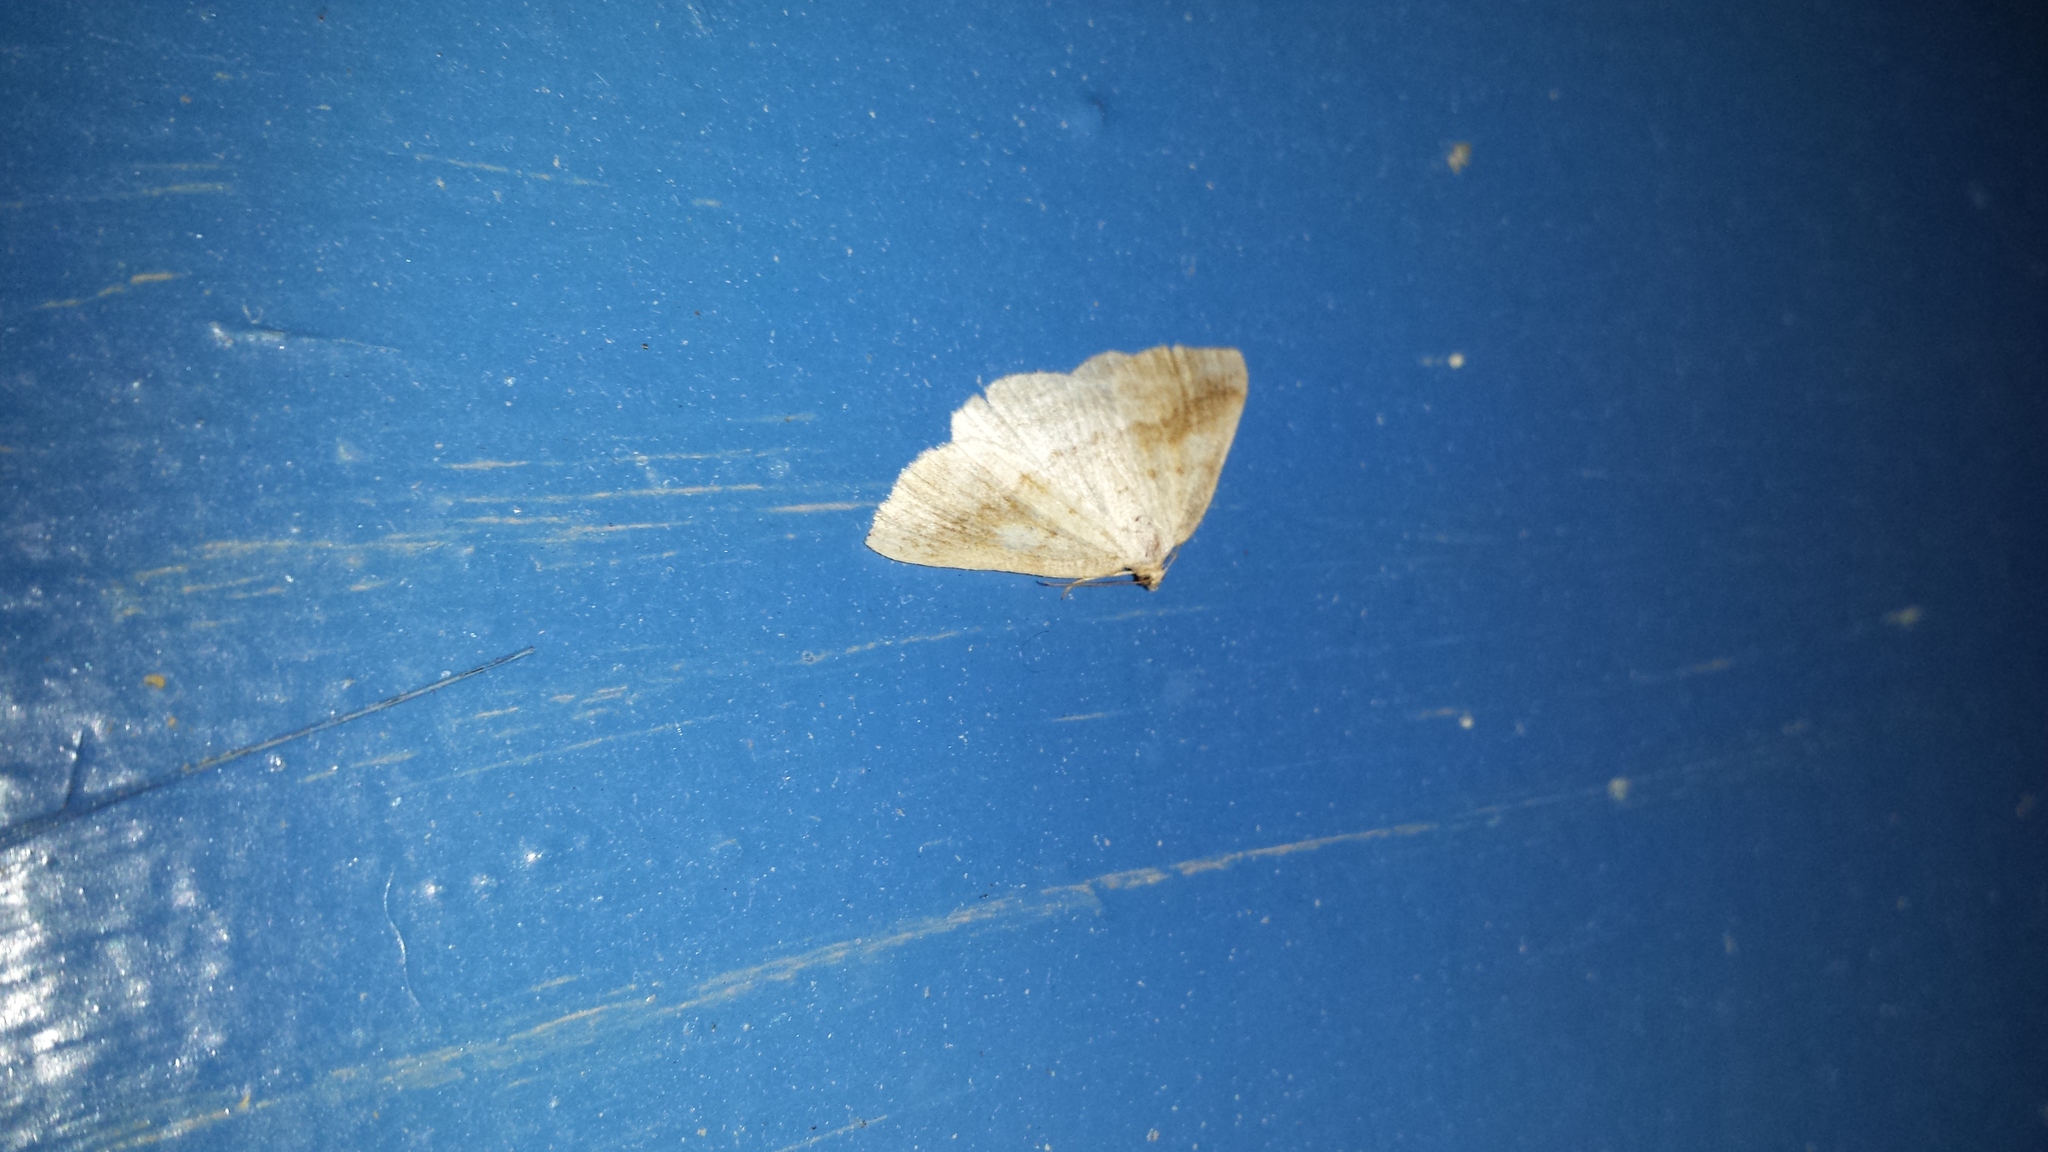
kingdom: Animalia
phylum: Arthropoda
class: Insecta
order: Lepidoptera
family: Geometridae
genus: Tacparia
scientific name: Tacparia detersata
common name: Pale alder moth
